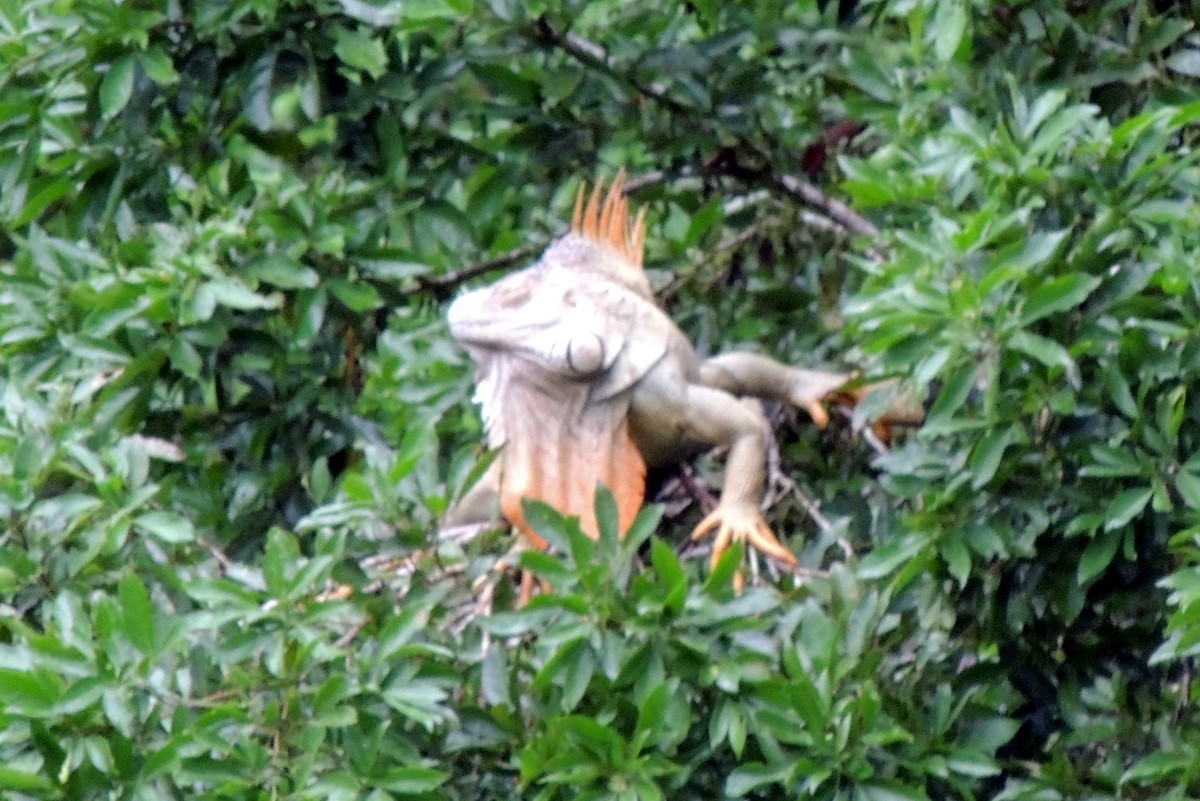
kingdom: Animalia
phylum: Chordata
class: Squamata
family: Iguanidae
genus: Iguana
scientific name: Iguana iguana
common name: Green iguana
